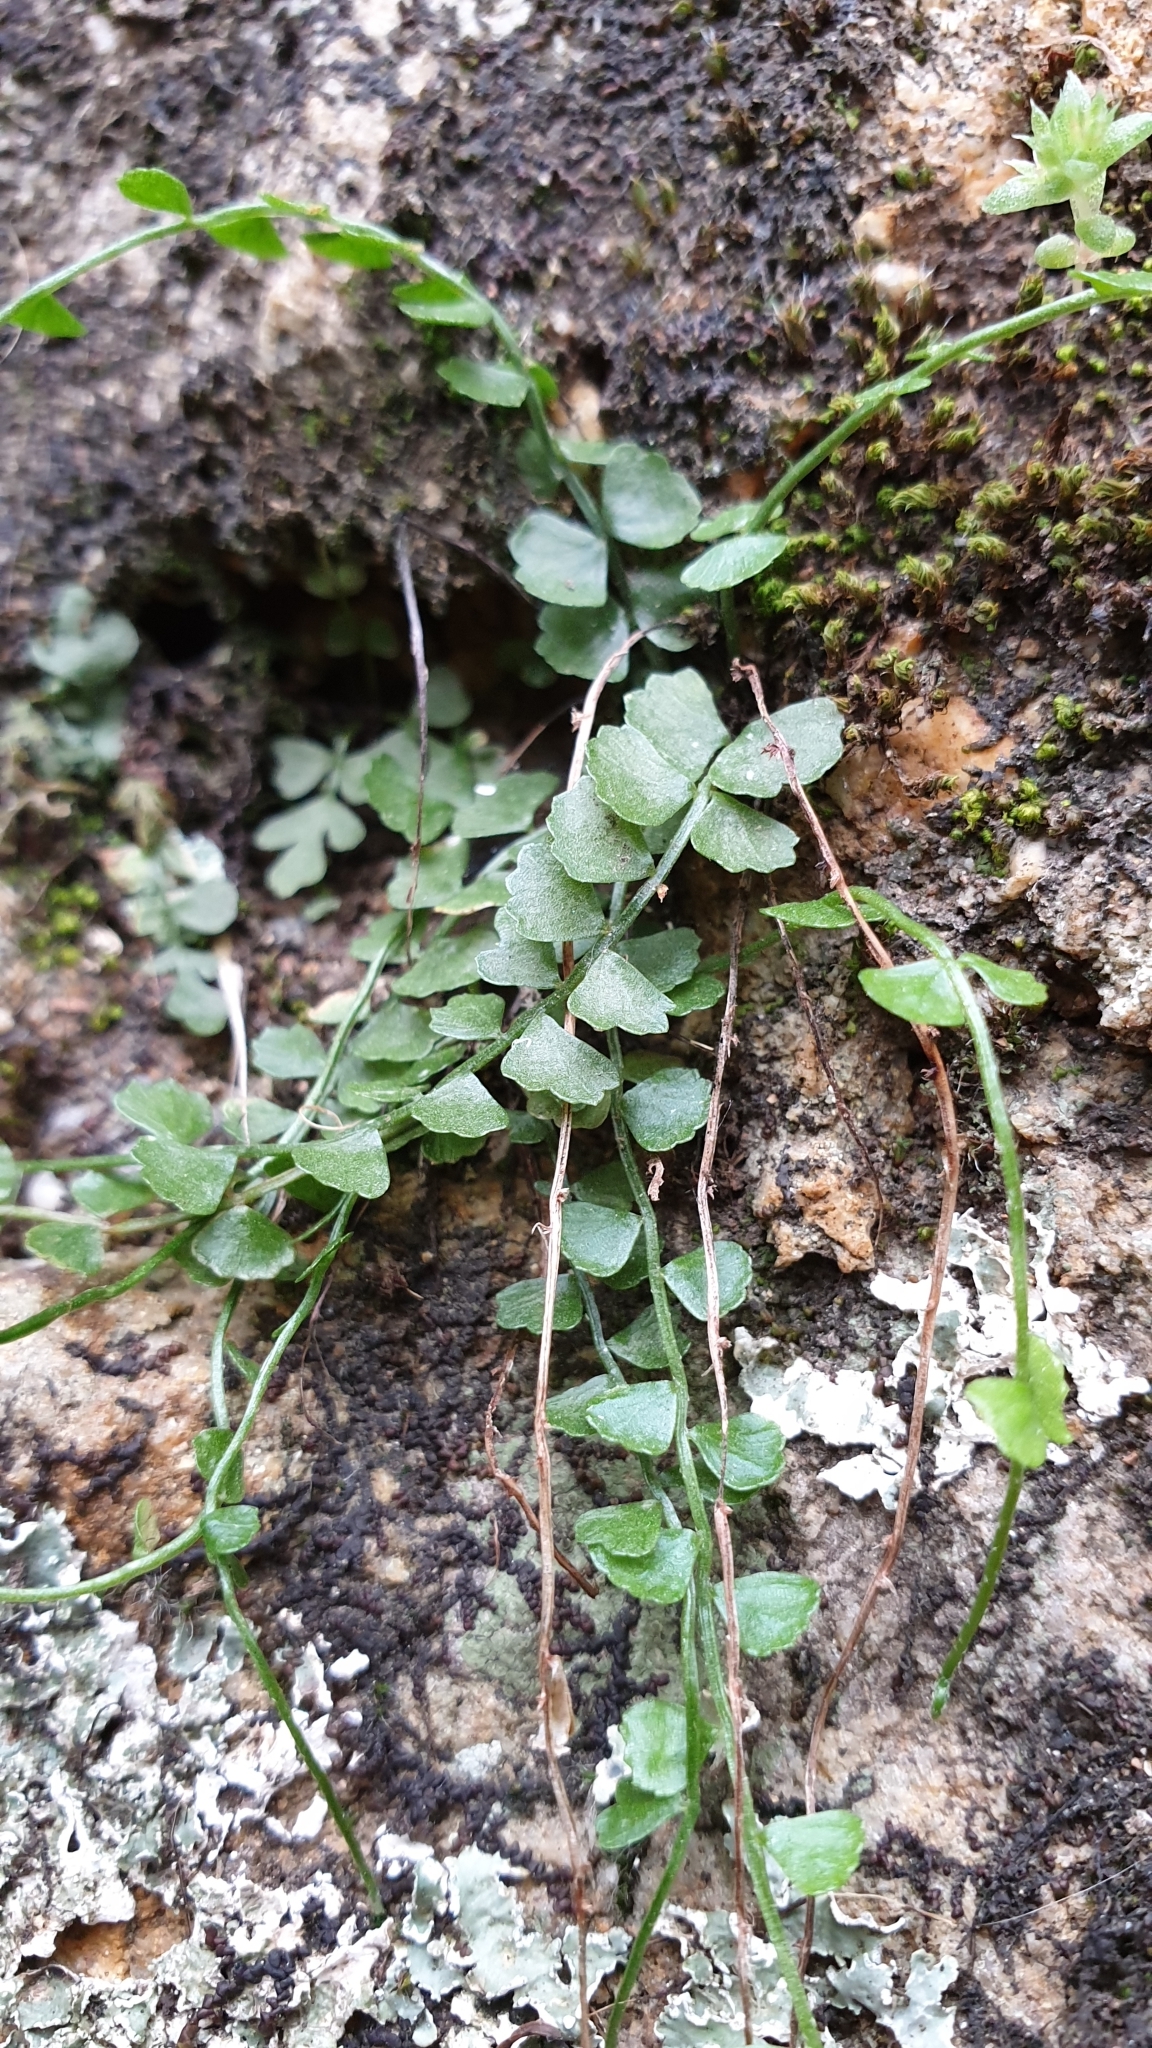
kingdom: Plantae
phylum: Tracheophyta
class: Polypodiopsida
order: Polypodiales
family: Aspleniaceae
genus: Asplenium
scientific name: Asplenium flabellifolium
